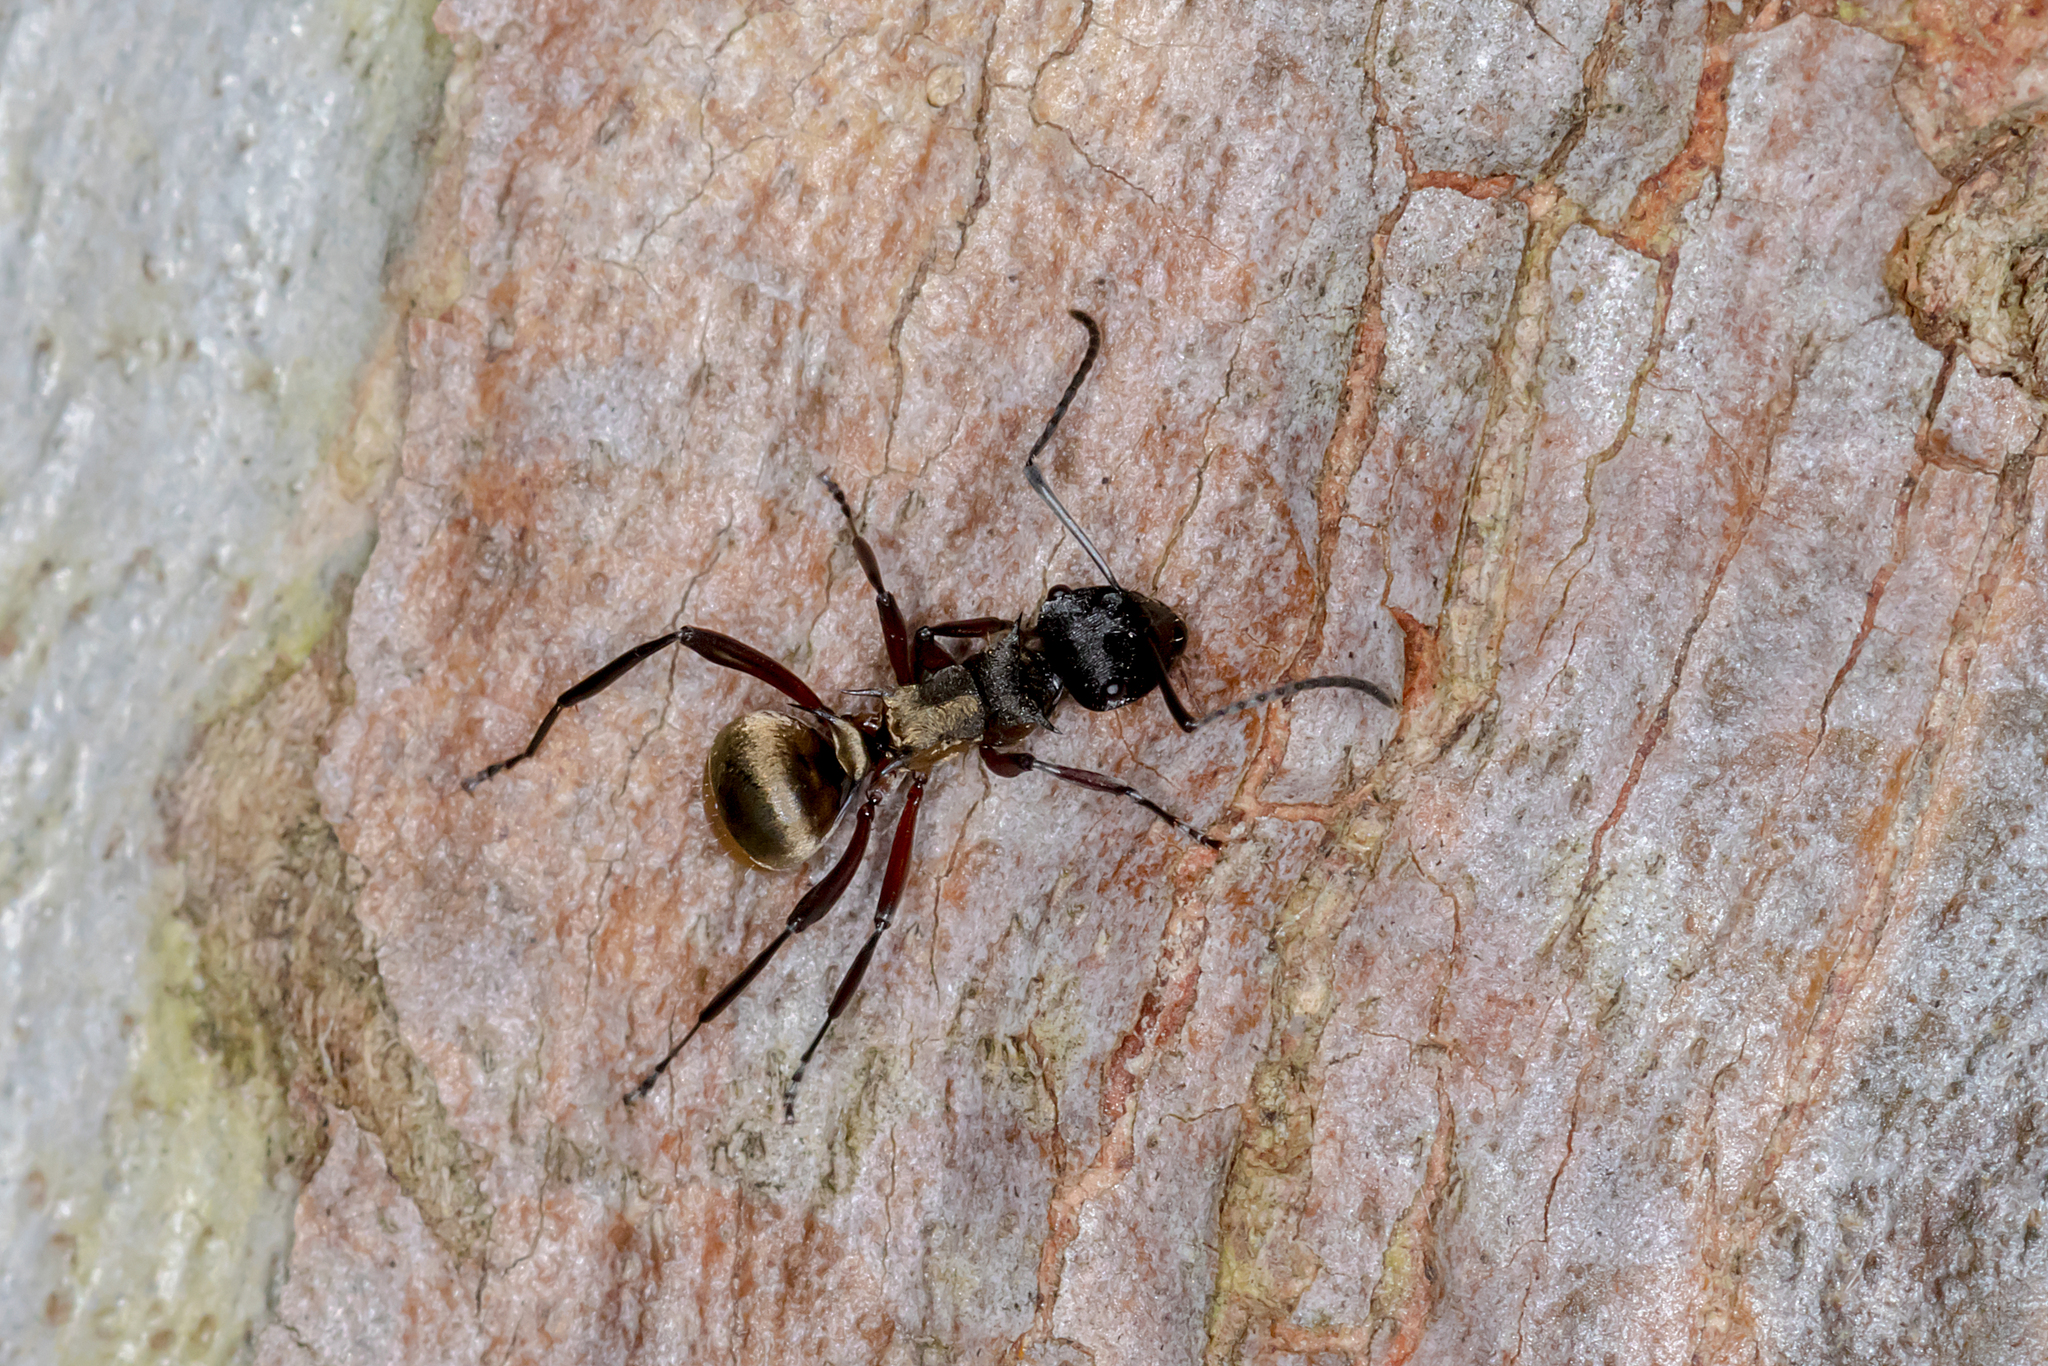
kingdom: Animalia
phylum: Arthropoda
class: Insecta
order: Hymenoptera
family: Formicidae
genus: Polyrhachis
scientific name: Polyrhachis rufifemur
